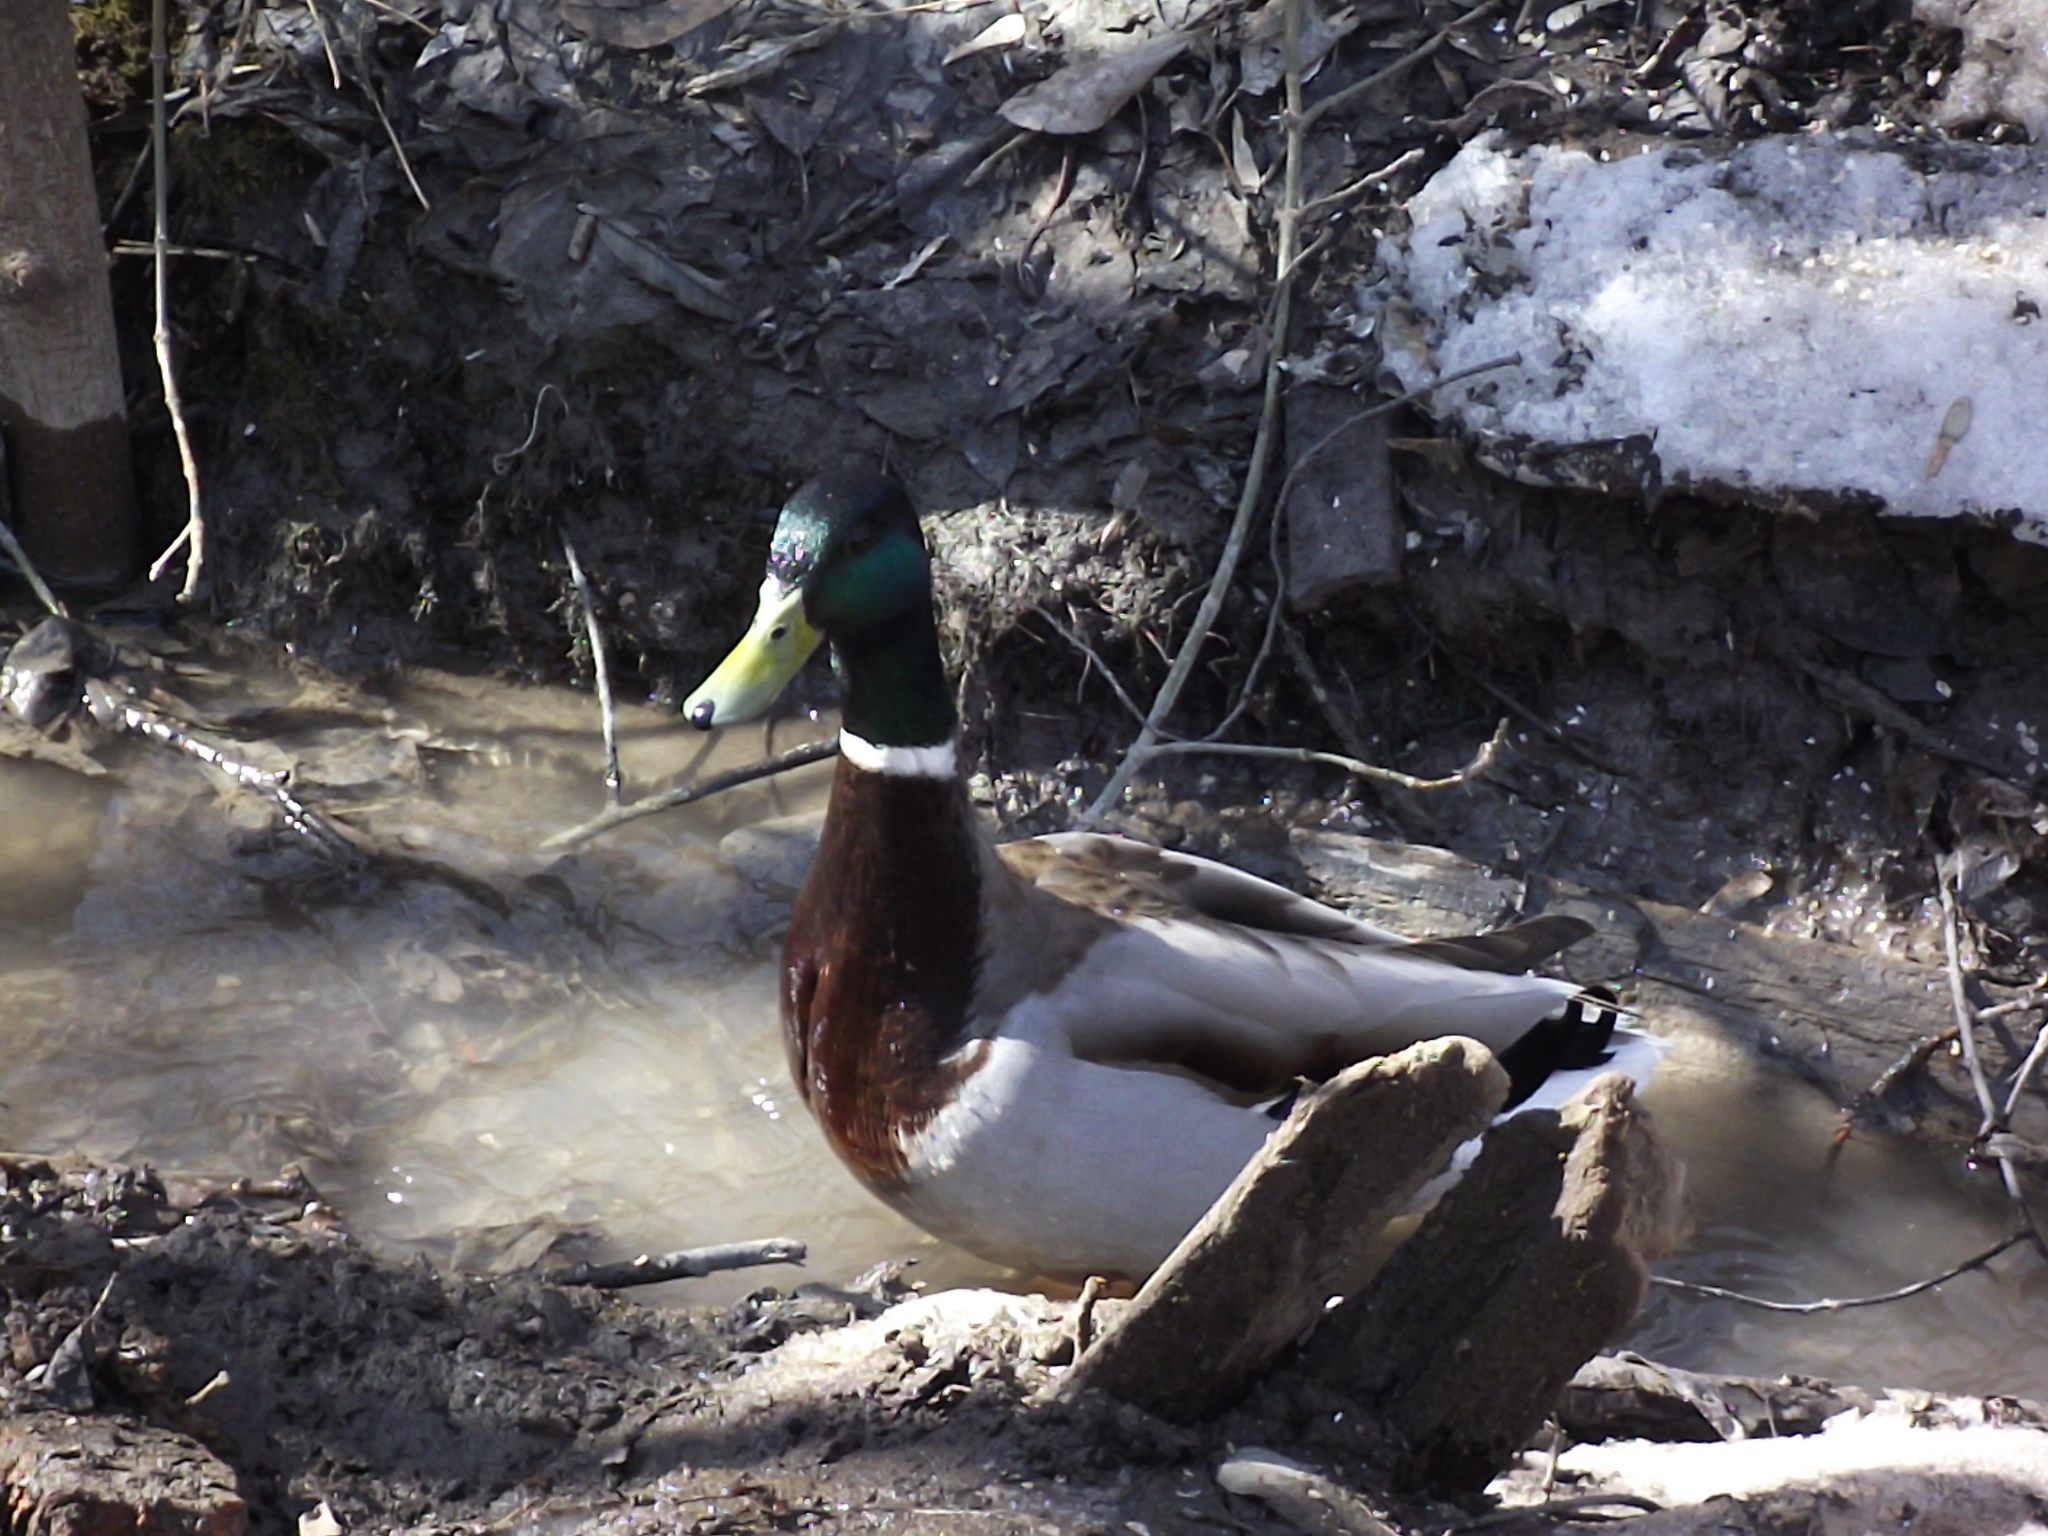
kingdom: Animalia
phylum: Chordata
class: Aves
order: Anseriformes
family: Anatidae
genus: Anas
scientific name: Anas platyrhynchos
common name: Mallard
